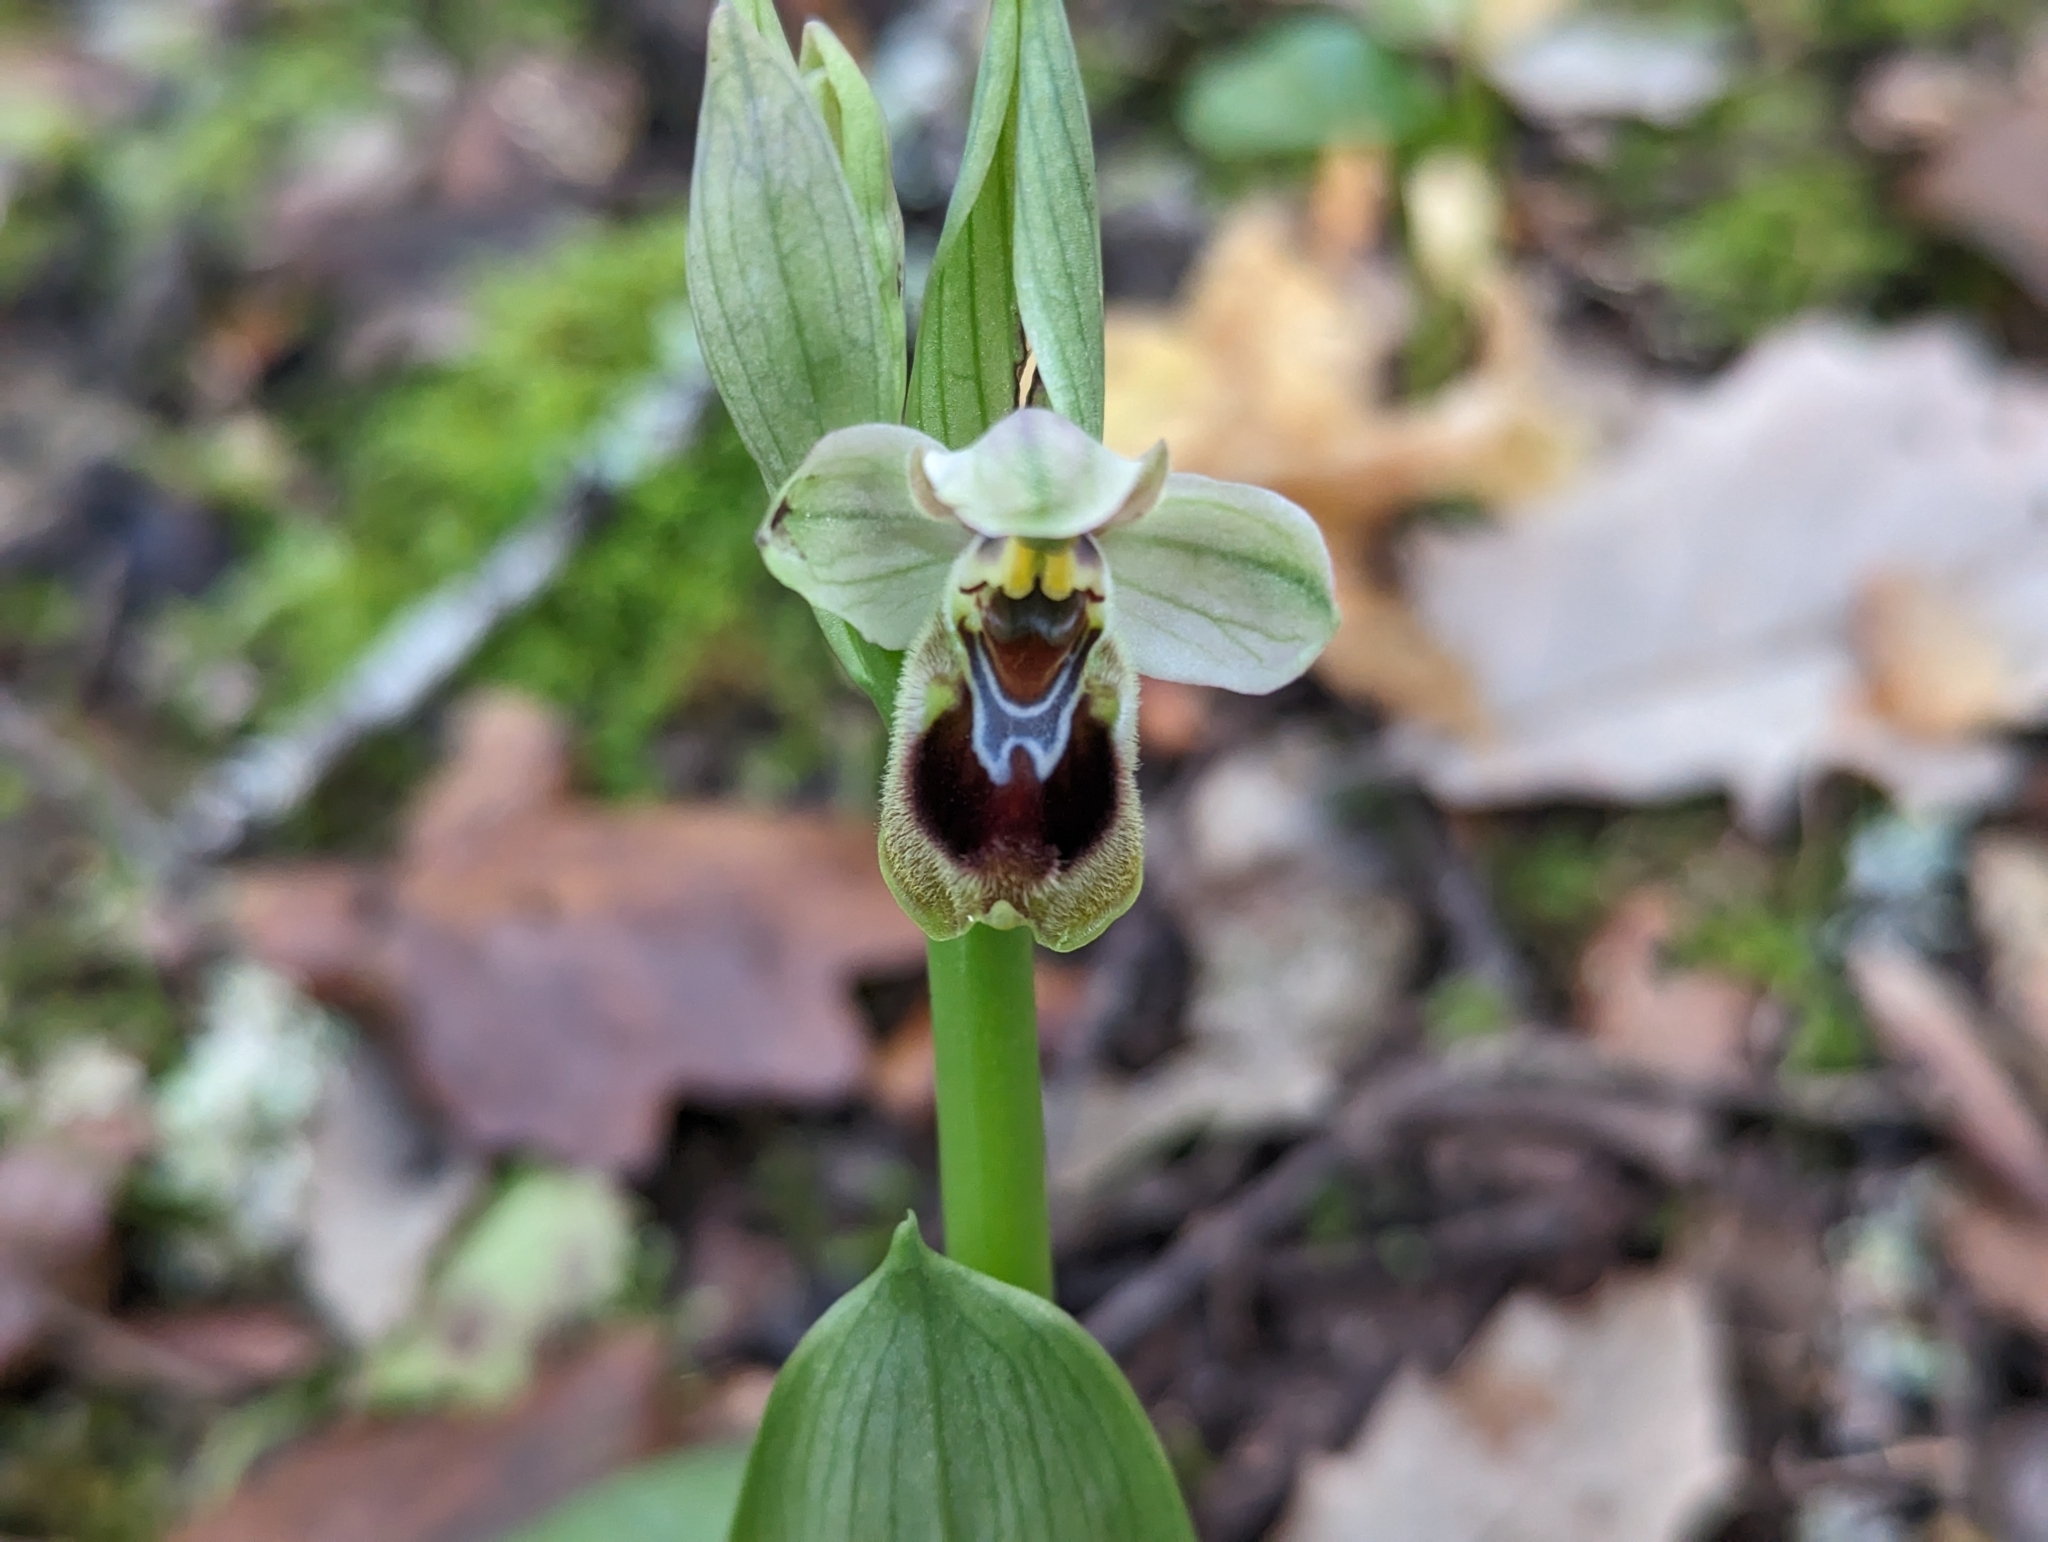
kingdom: Plantae
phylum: Tracheophyta
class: Liliopsida
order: Asparagales
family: Orchidaceae
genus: Ophrys
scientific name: Ophrys tenthredinifera
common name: Sawfly orchid
